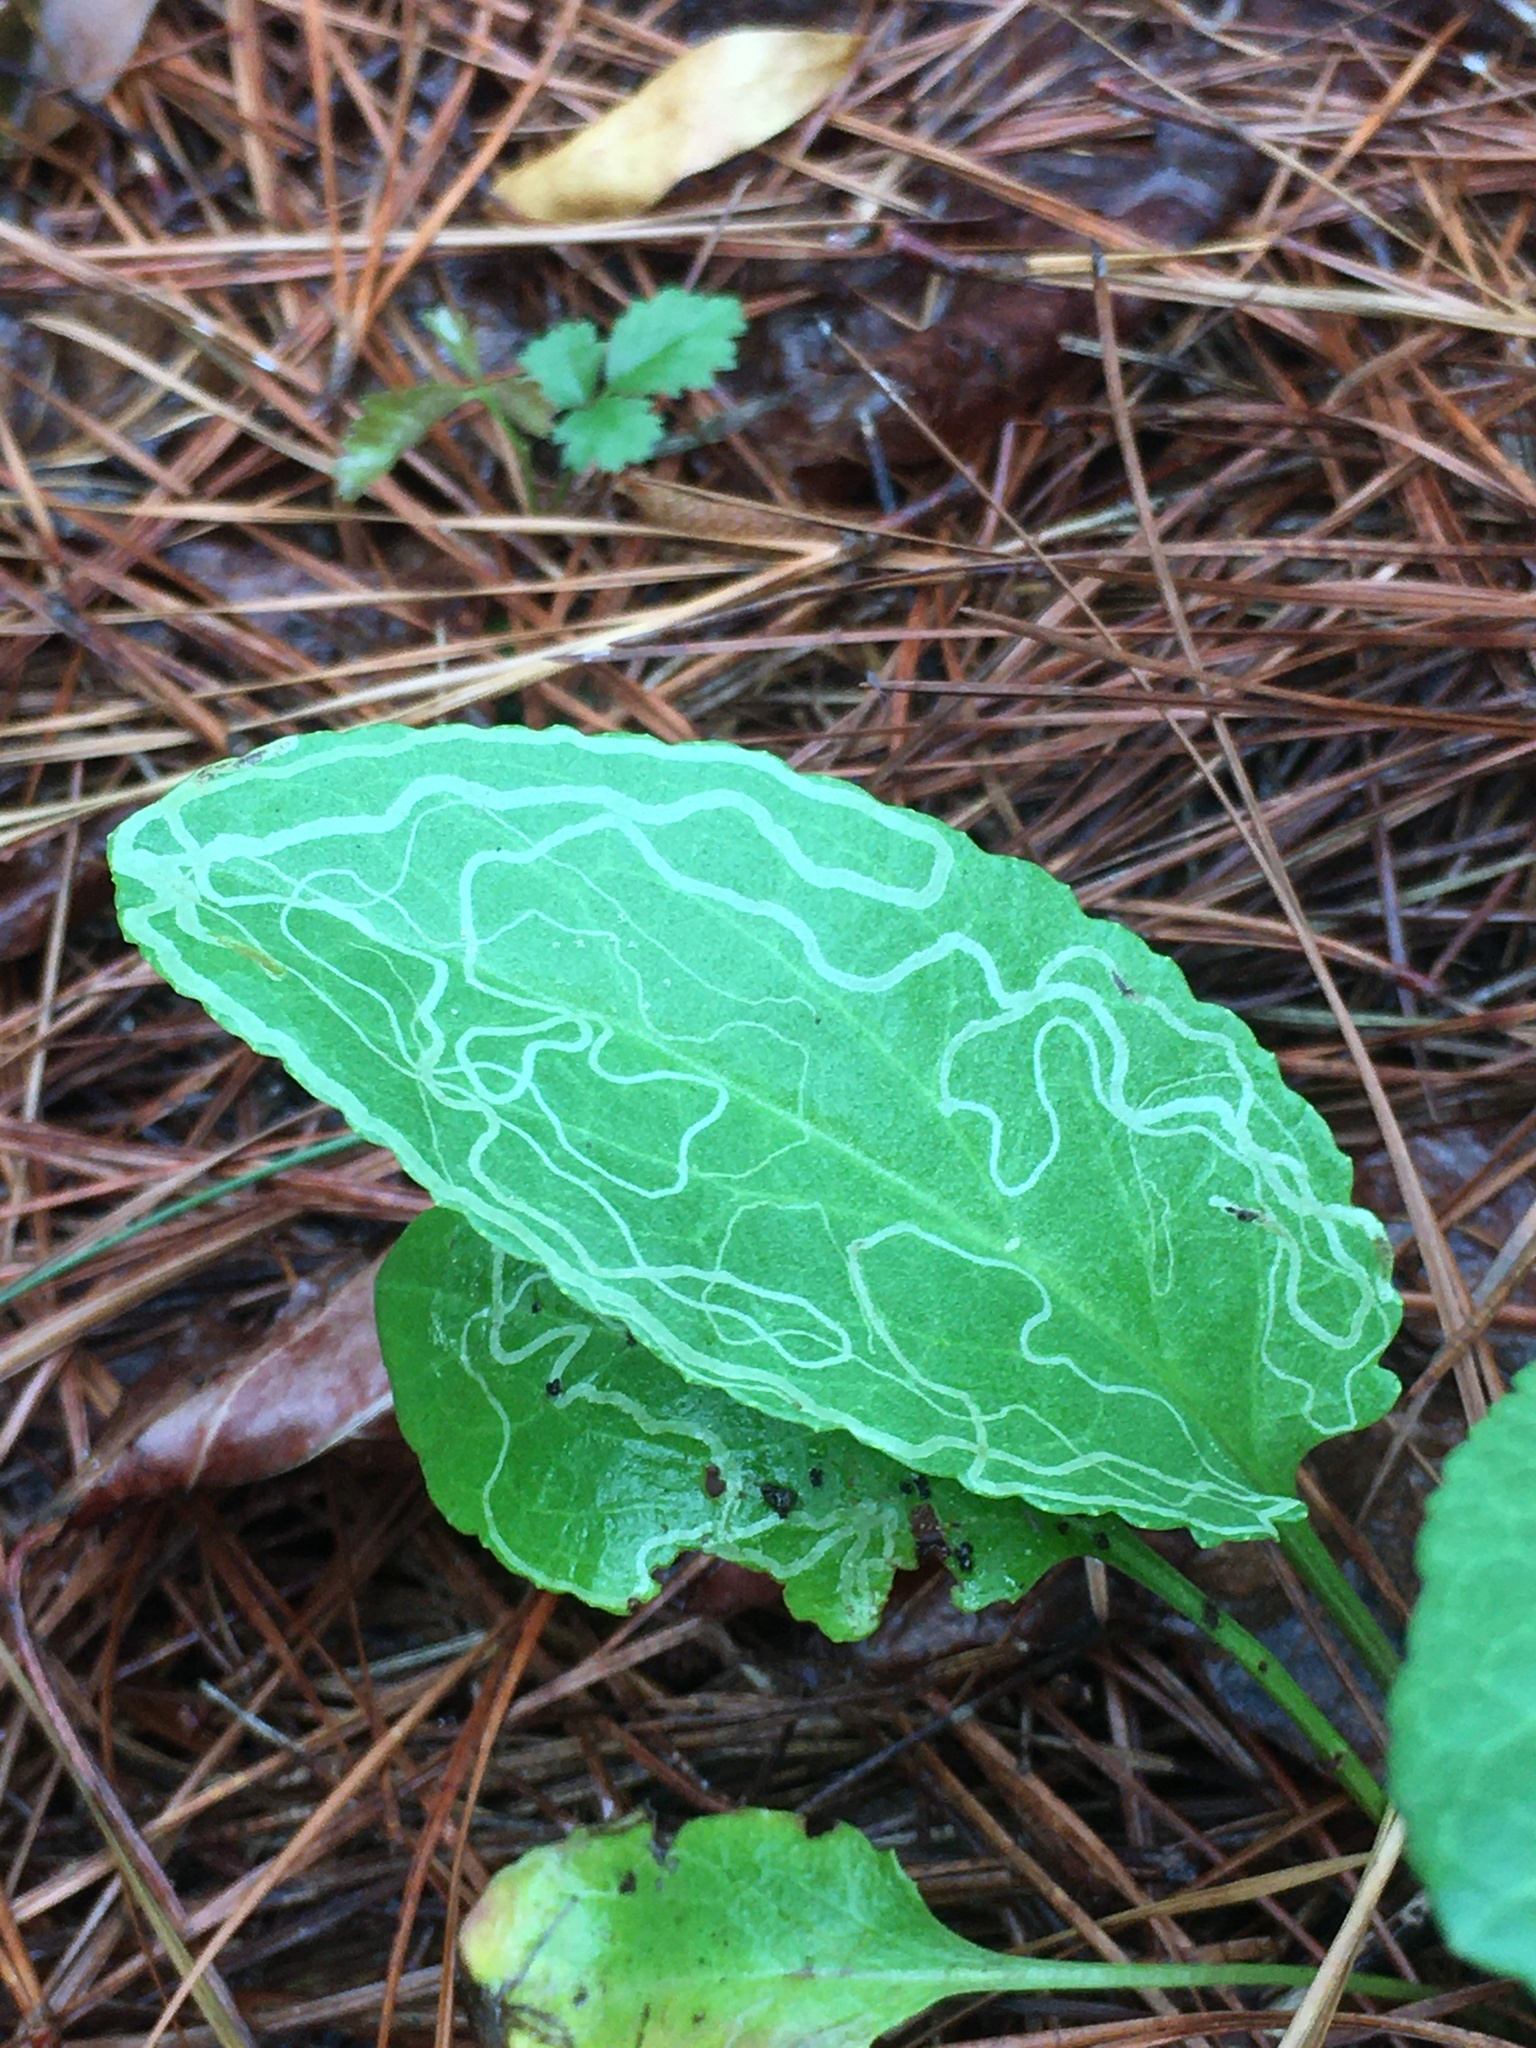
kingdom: Animalia
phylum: Arthropoda
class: Insecta
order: Lepidoptera
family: Gracillariidae
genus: Phyllocnistis
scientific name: Phyllocnistis insignis
